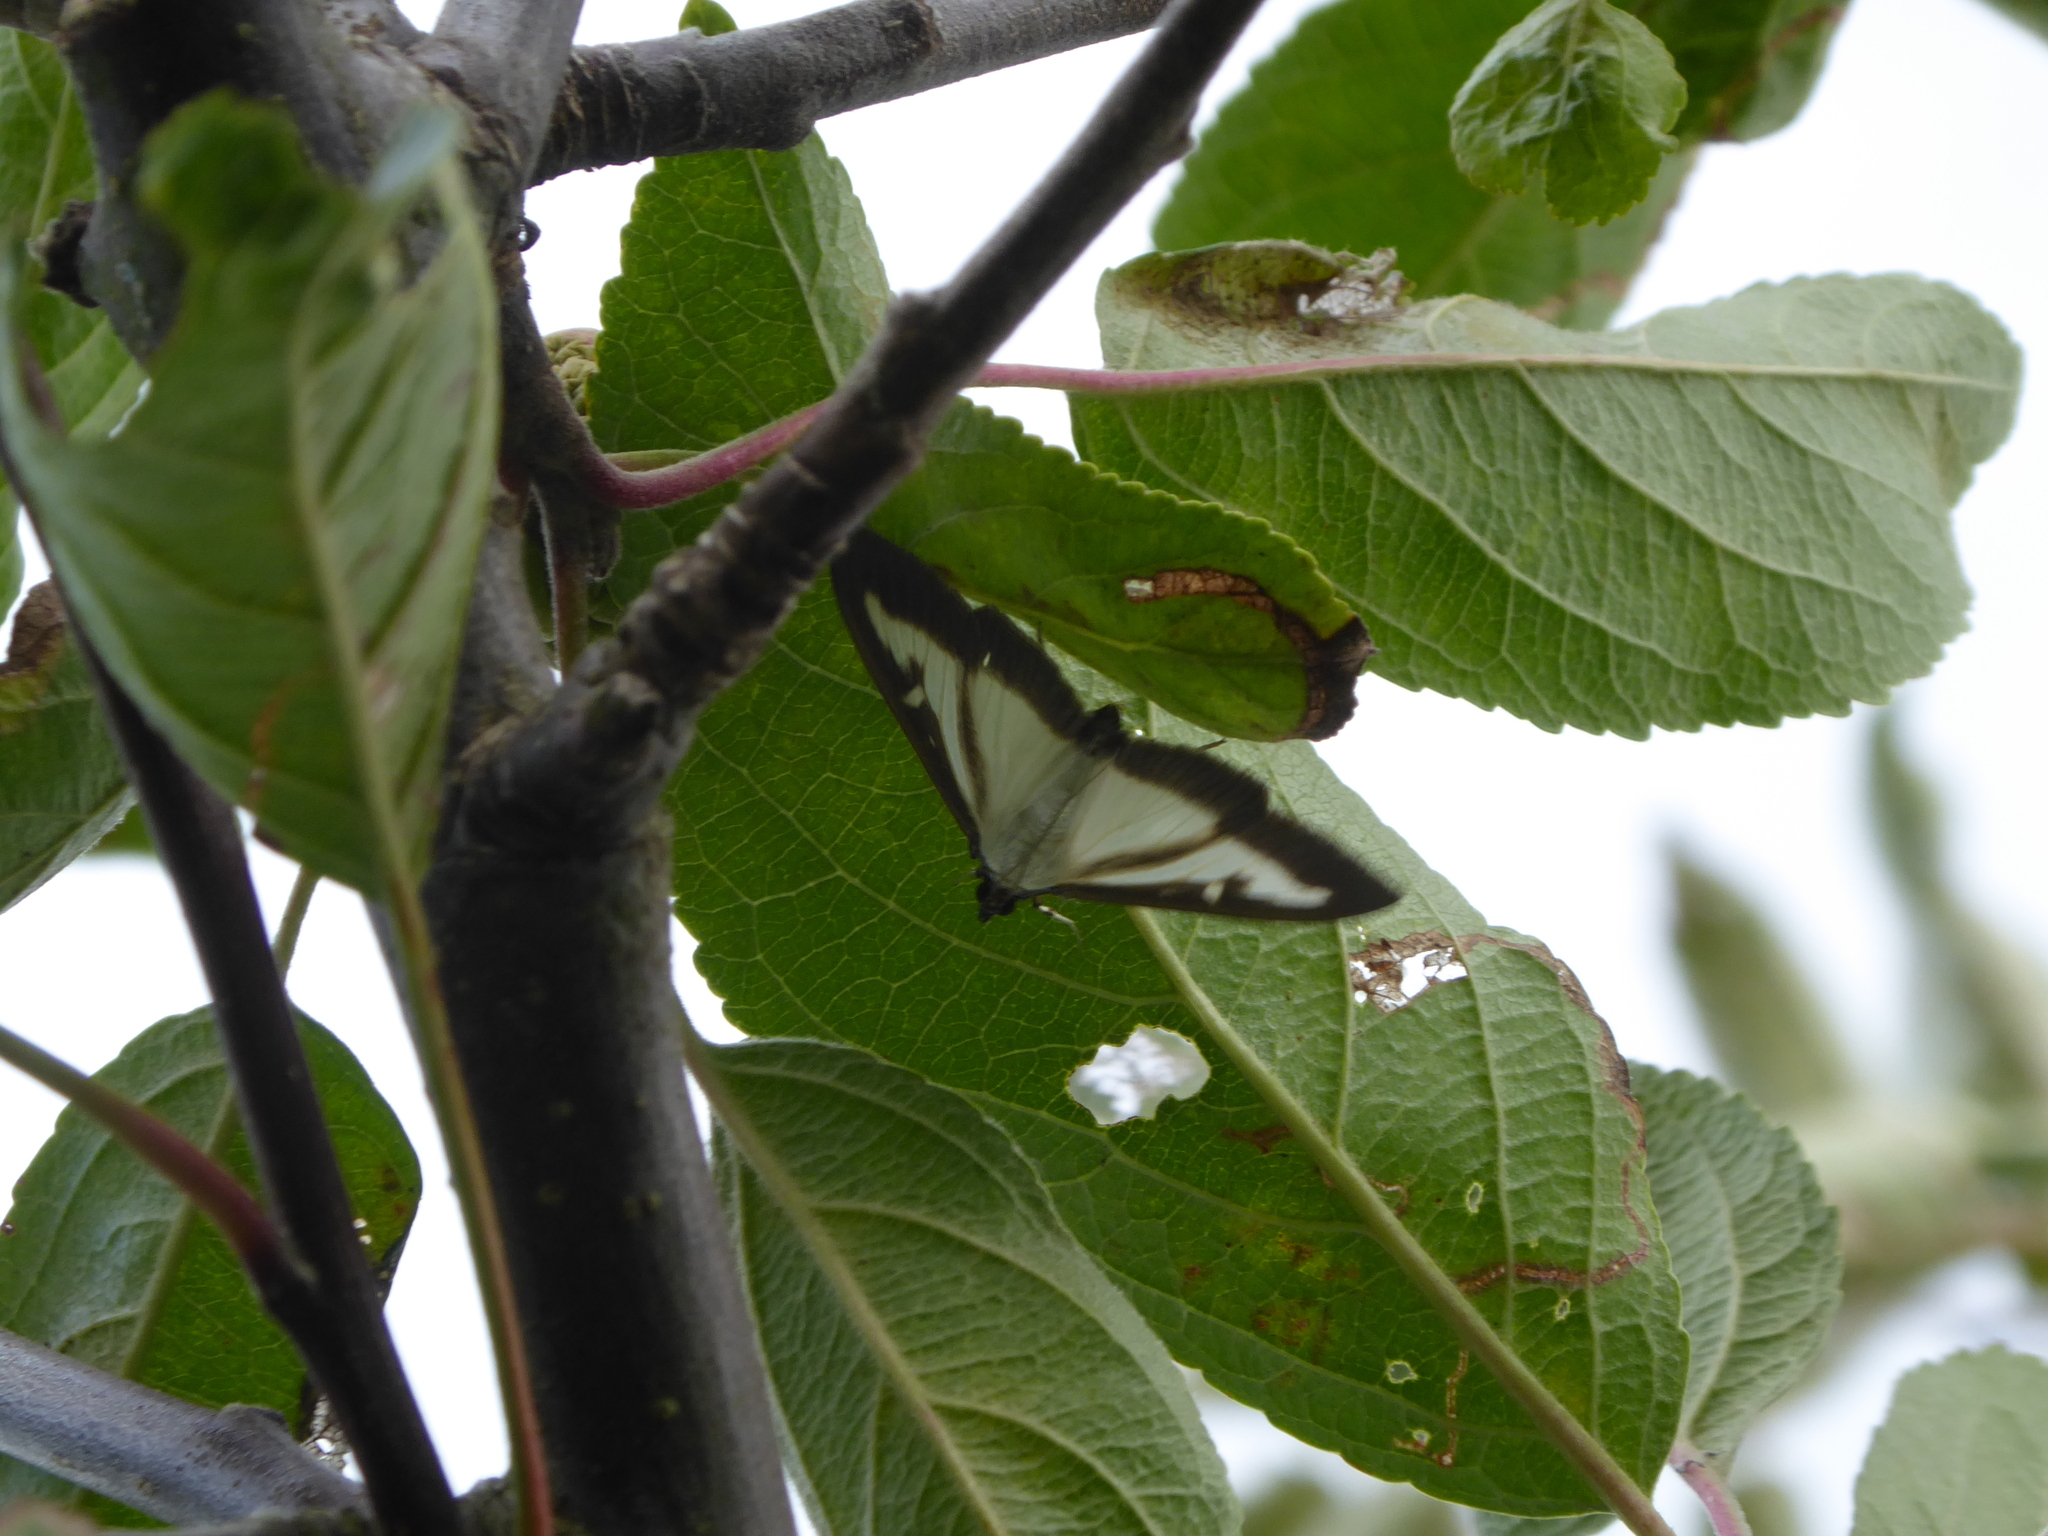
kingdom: Animalia
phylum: Arthropoda
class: Insecta
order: Lepidoptera
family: Crambidae
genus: Cydalima
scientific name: Cydalima perspectalis
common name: Box tree moth
